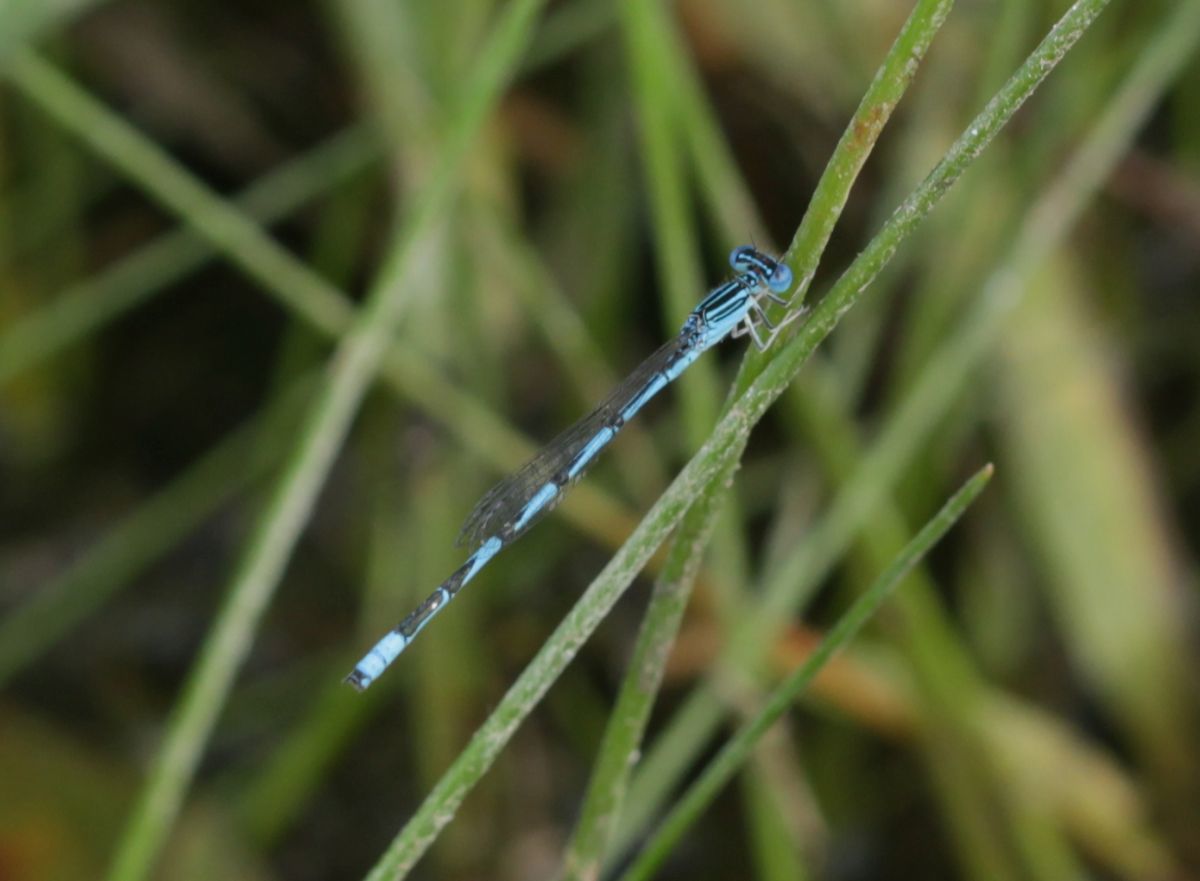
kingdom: Animalia
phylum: Arthropoda
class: Insecta
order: Odonata
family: Coenagrionidae
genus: Enallagma
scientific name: Enallagma basidens
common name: Double-striped bluet
